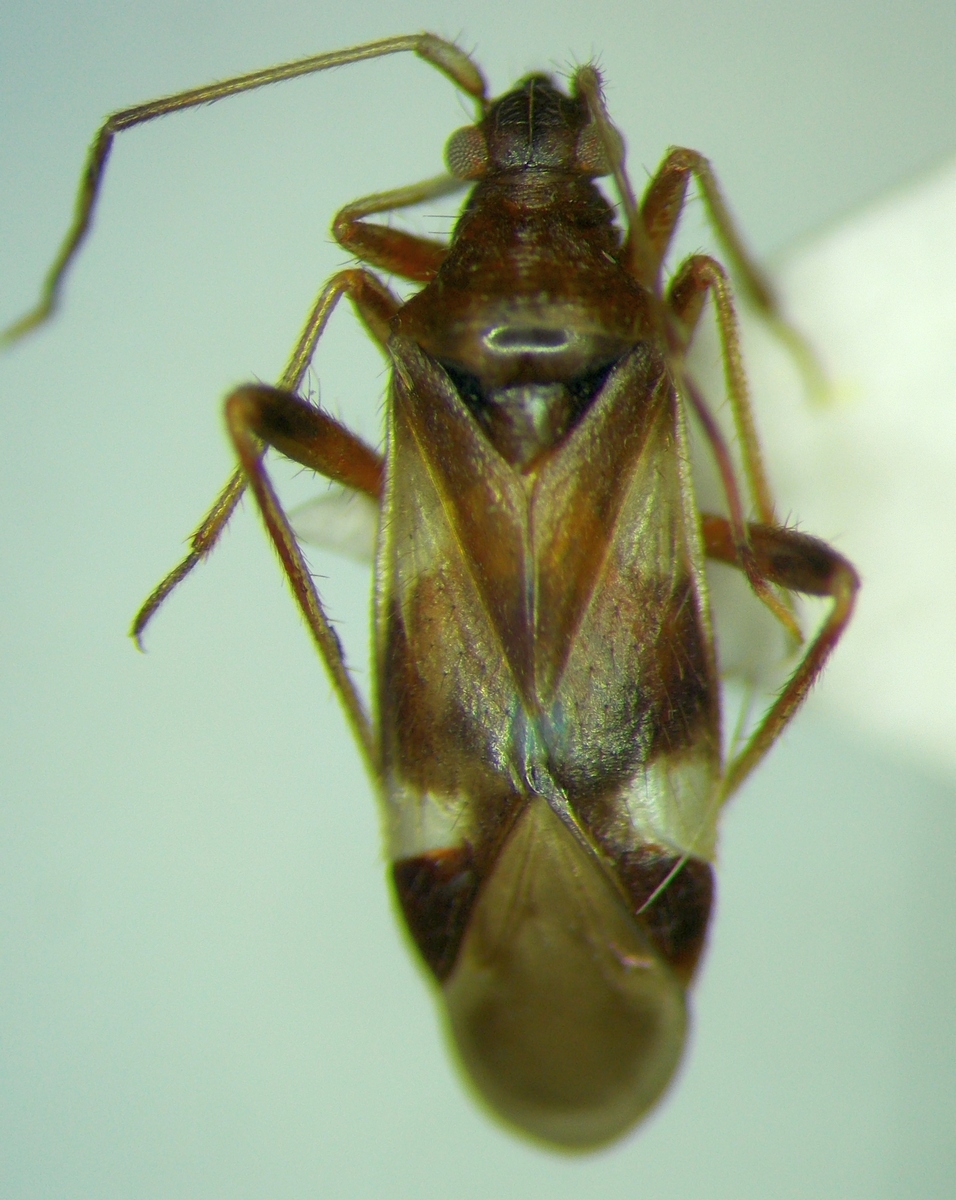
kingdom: Animalia
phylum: Arthropoda
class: Insecta
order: Hemiptera
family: Miridae
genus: Hallodapus
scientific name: Hallodapus montandoni
